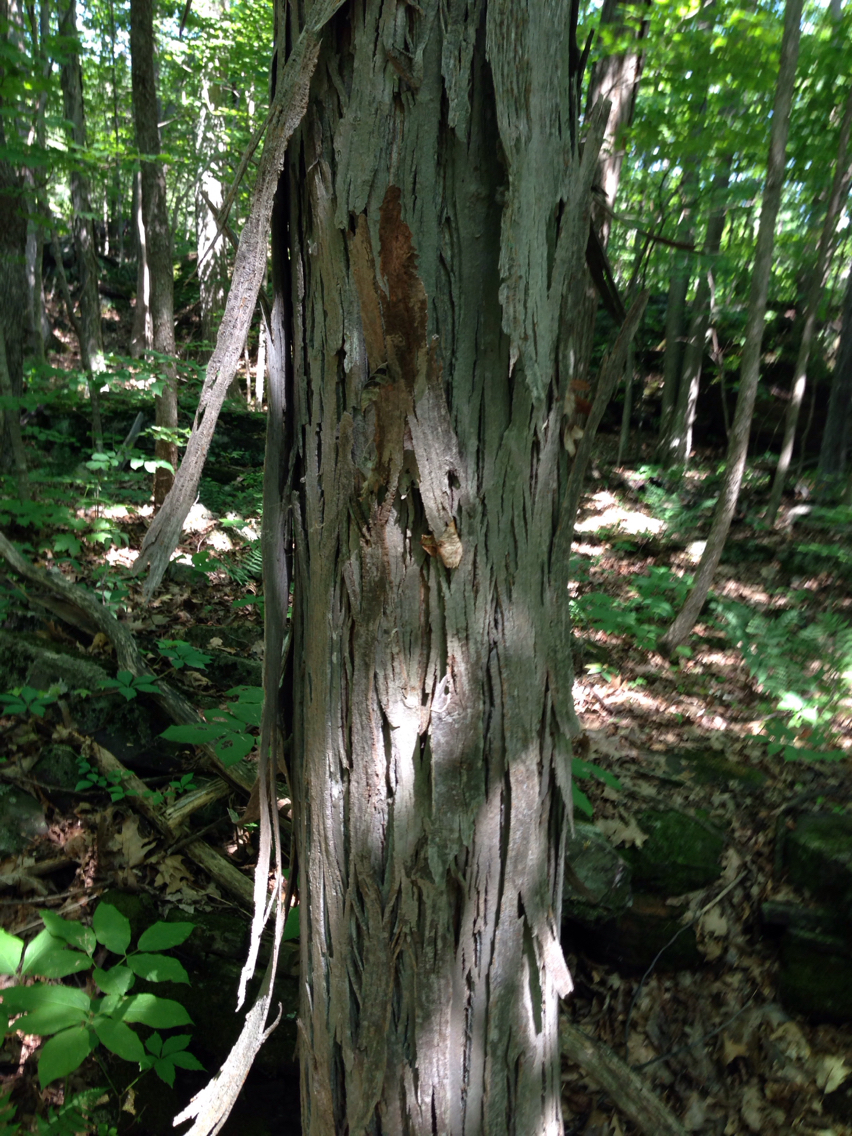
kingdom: Plantae
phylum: Tracheophyta
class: Magnoliopsida
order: Fagales
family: Juglandaceae
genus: Carya
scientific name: Carya ovata
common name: Shagbark hickory
